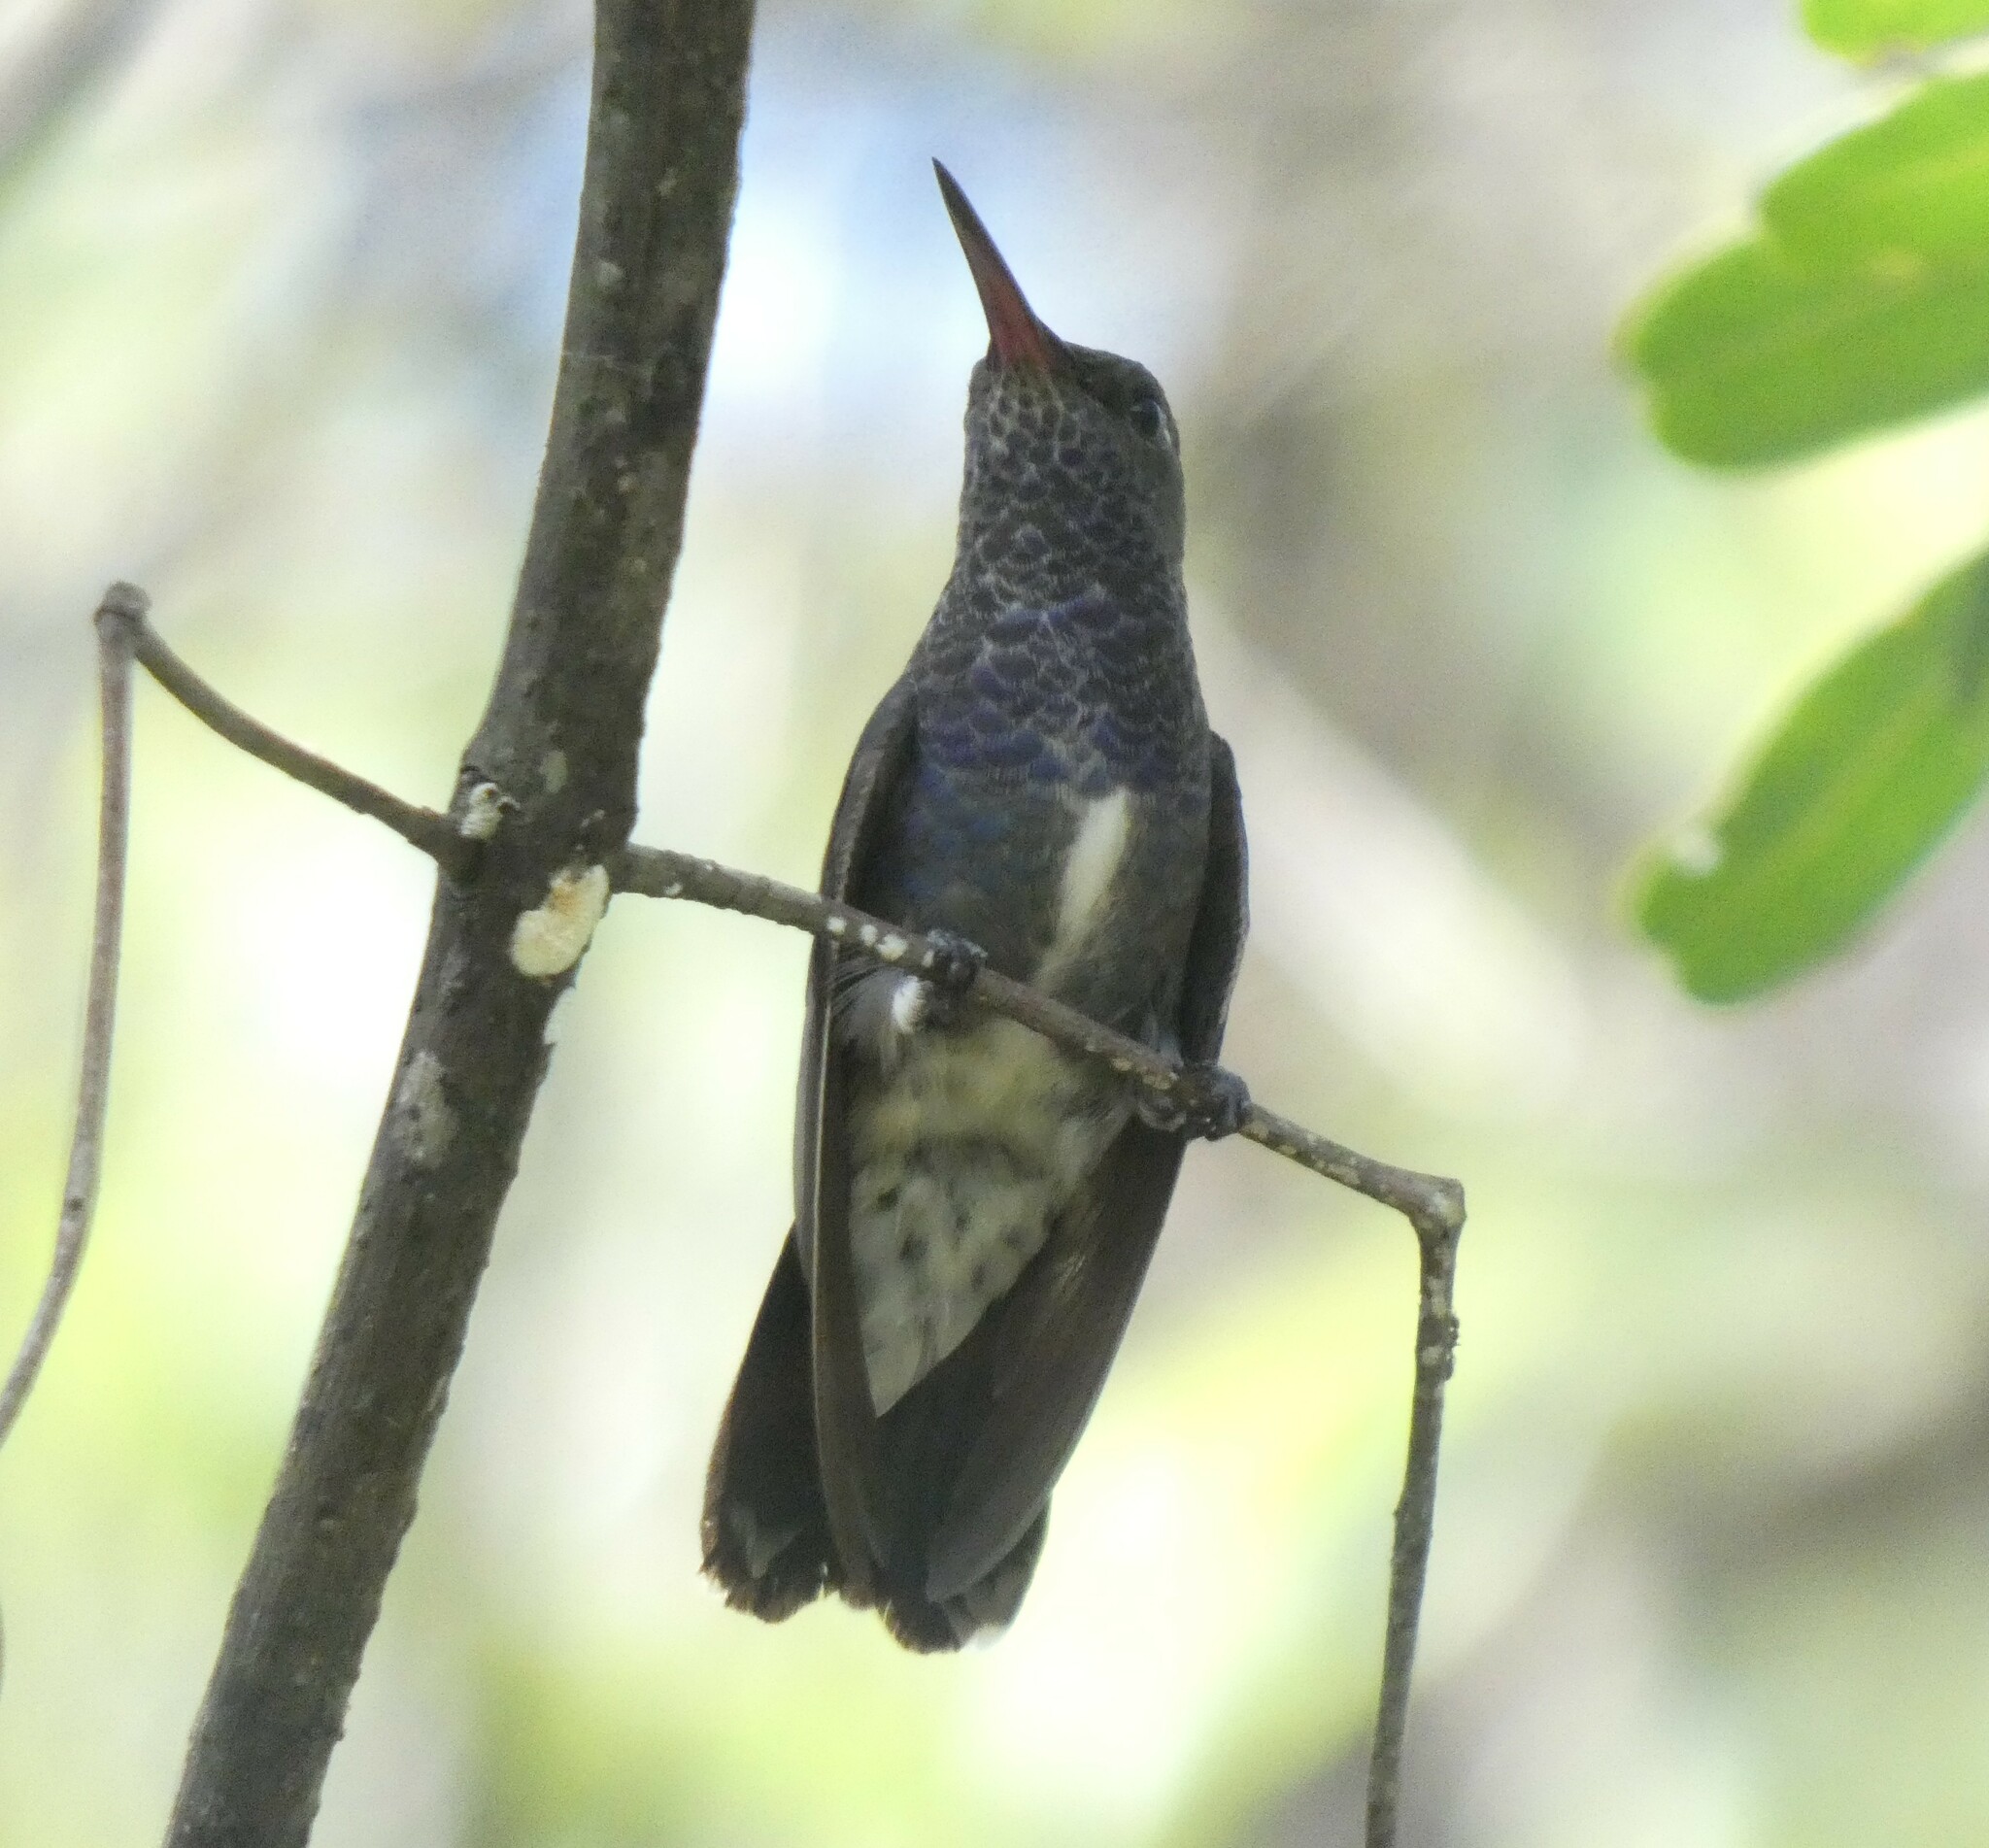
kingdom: Animalia
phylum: Chordata
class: Aves
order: Apodiformes
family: Trochilidae
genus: Chionomesa
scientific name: Chionomesa lactea
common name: Sapphire-spangled emerald
